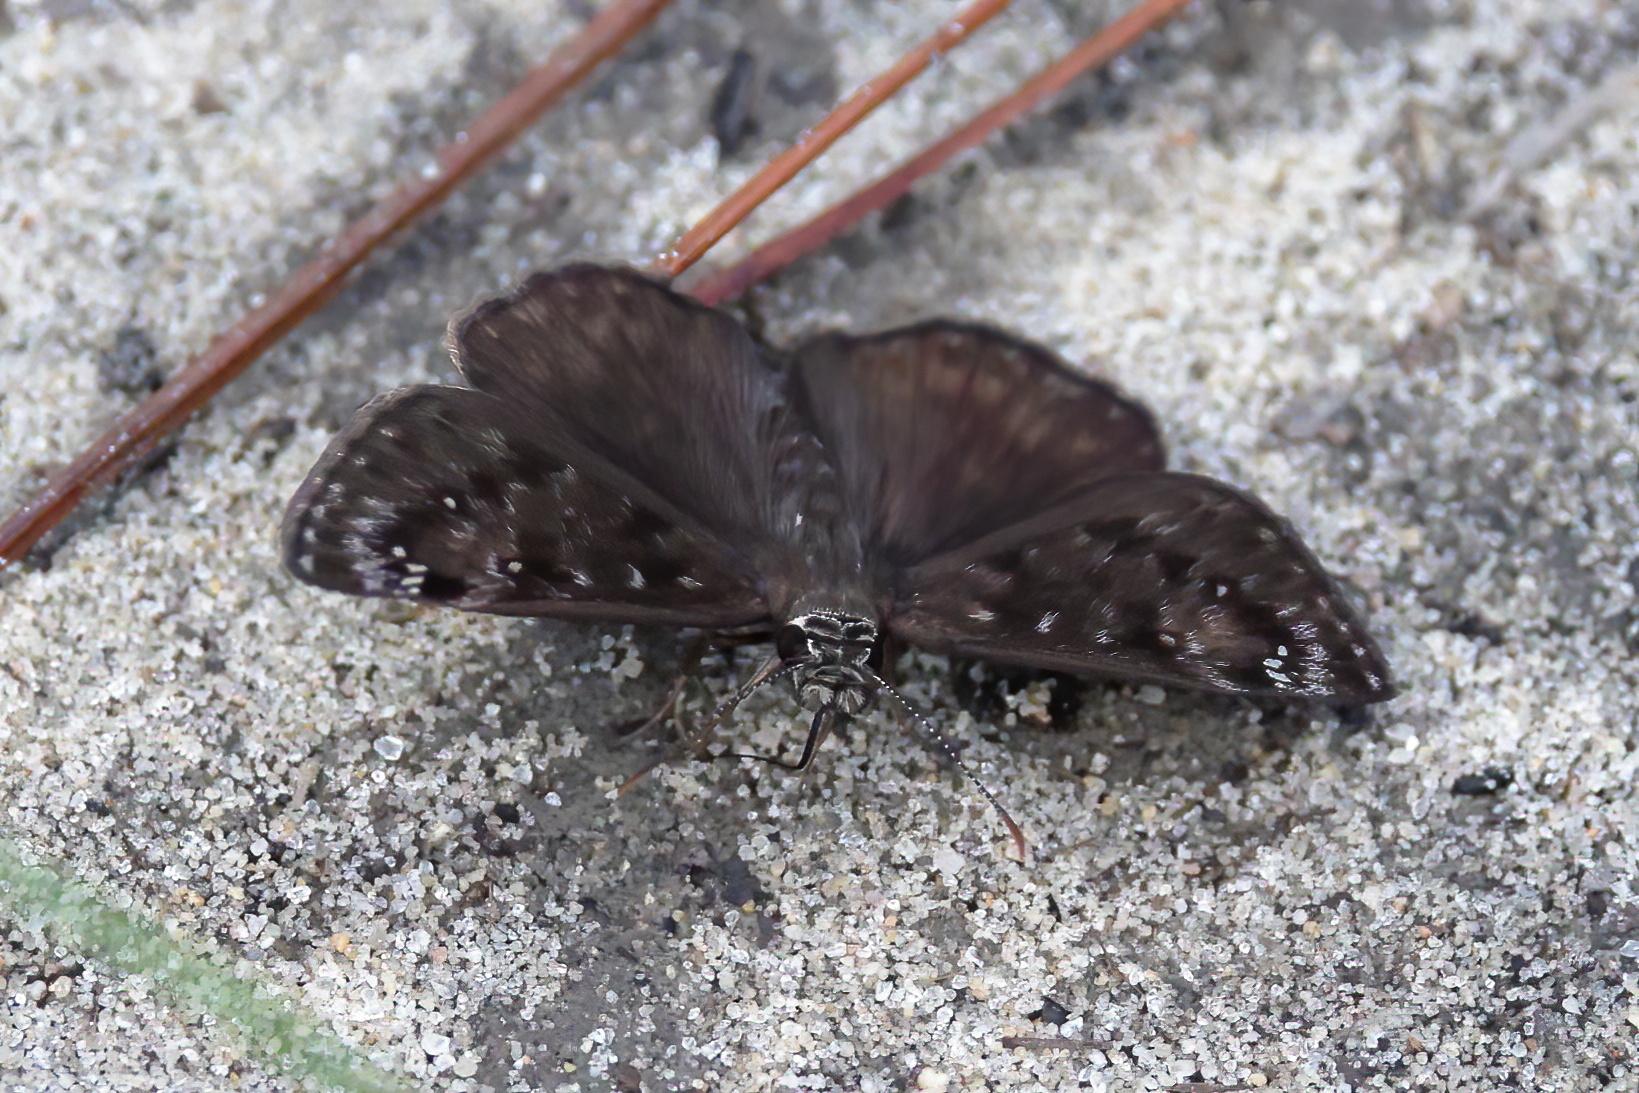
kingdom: Animalia
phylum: Arthropoda
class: Insecta
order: Lepidoptera
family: Hesperiidae
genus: Erynnis
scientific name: Erynnis horatius
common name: Horace's duskywing
